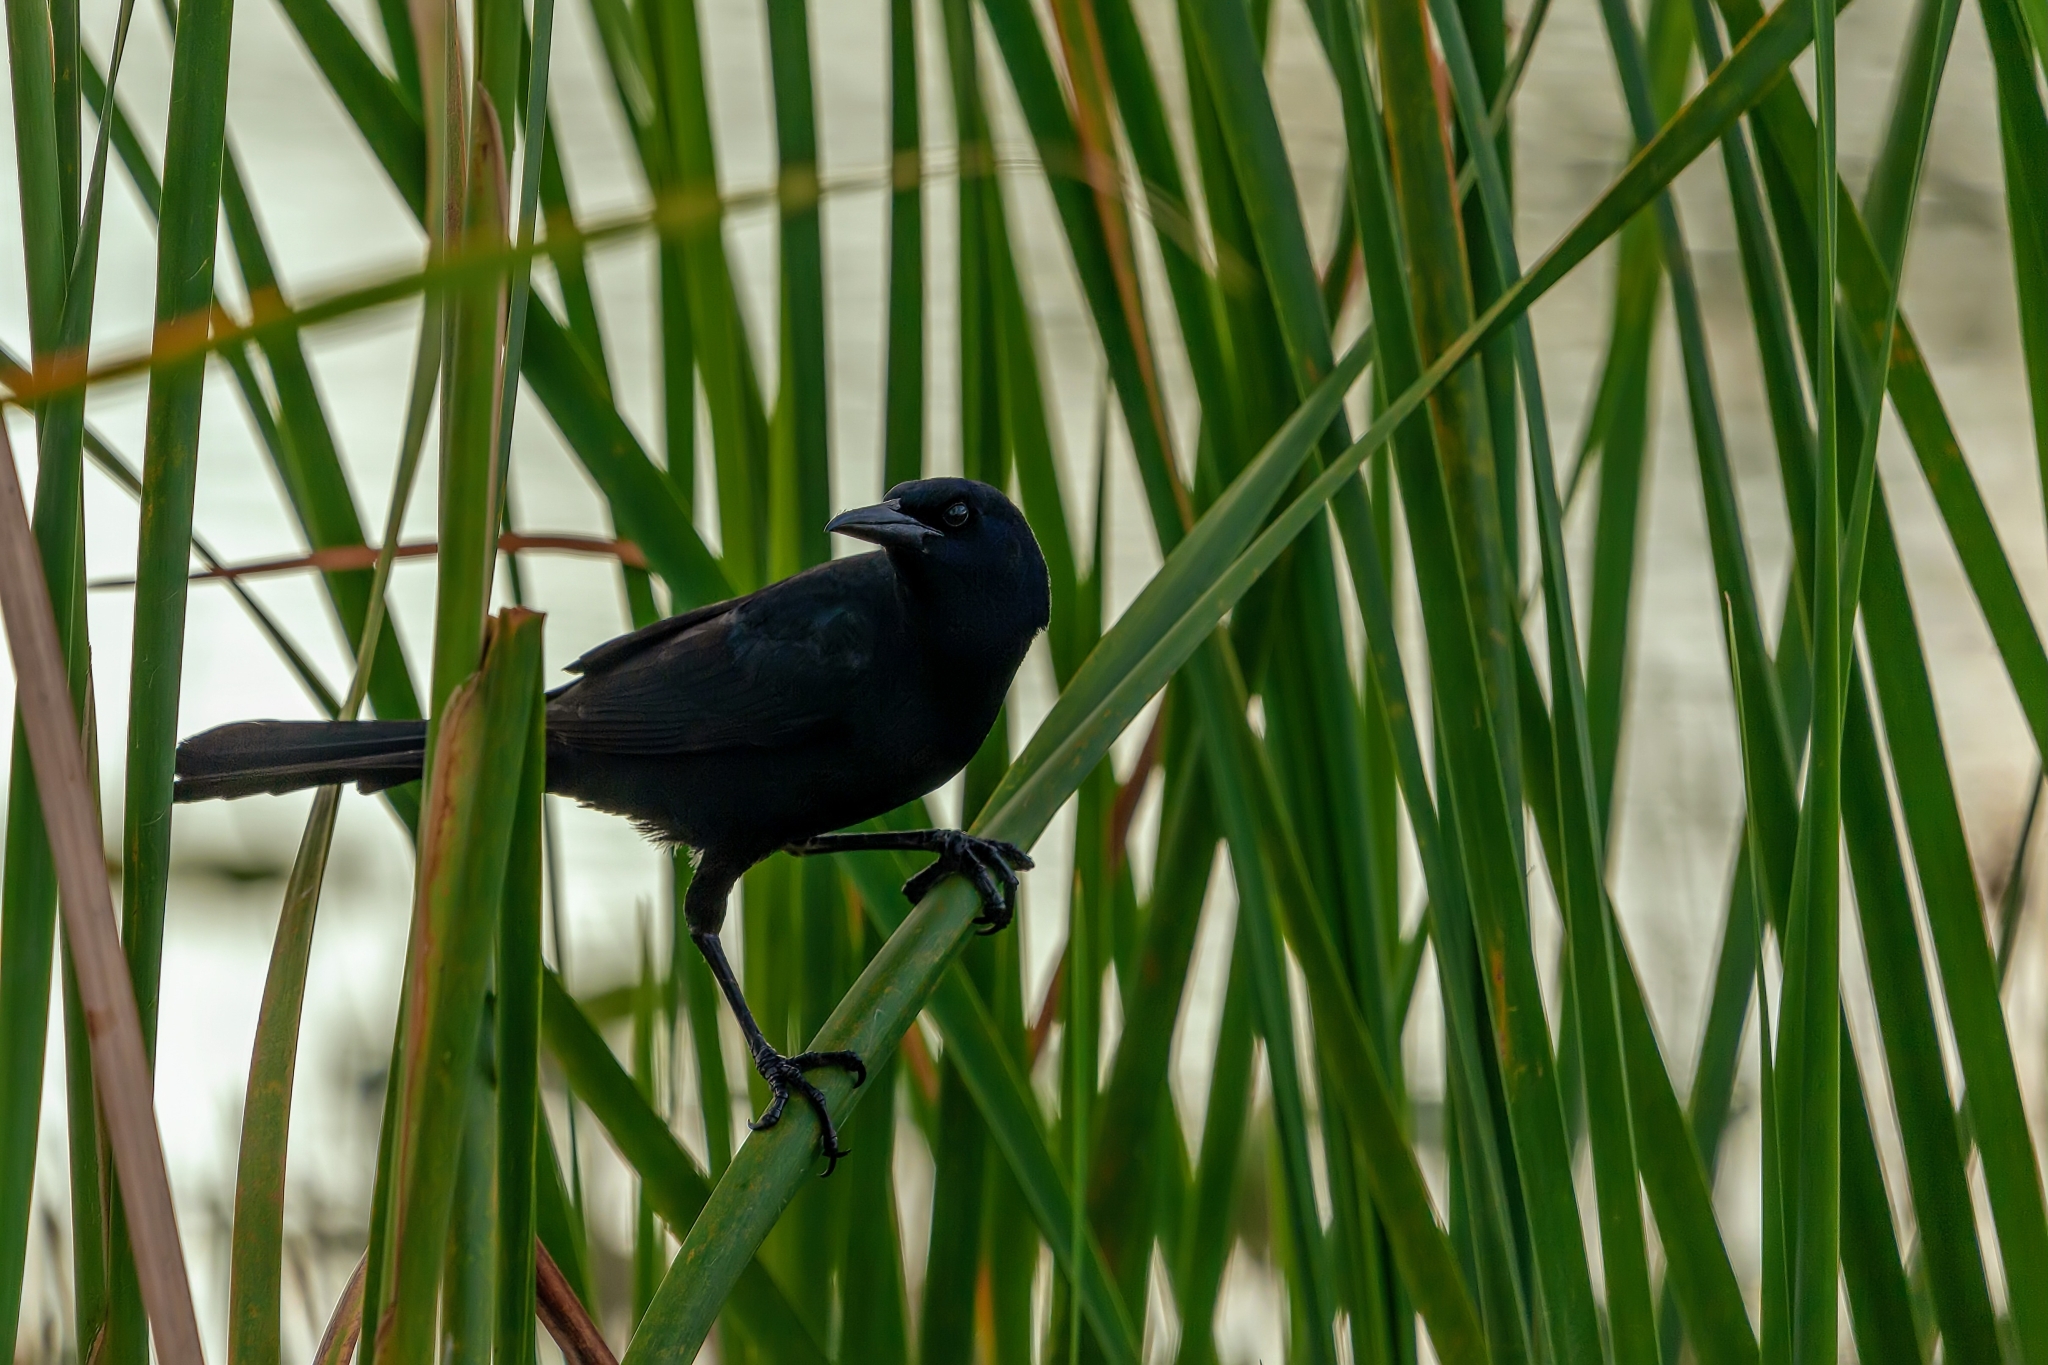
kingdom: Animalia
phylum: Chordata
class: Aves
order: Passeriformes
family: Icteridae
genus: Quiscalus
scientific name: Quiscalus major
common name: Boat-tailed grackle
